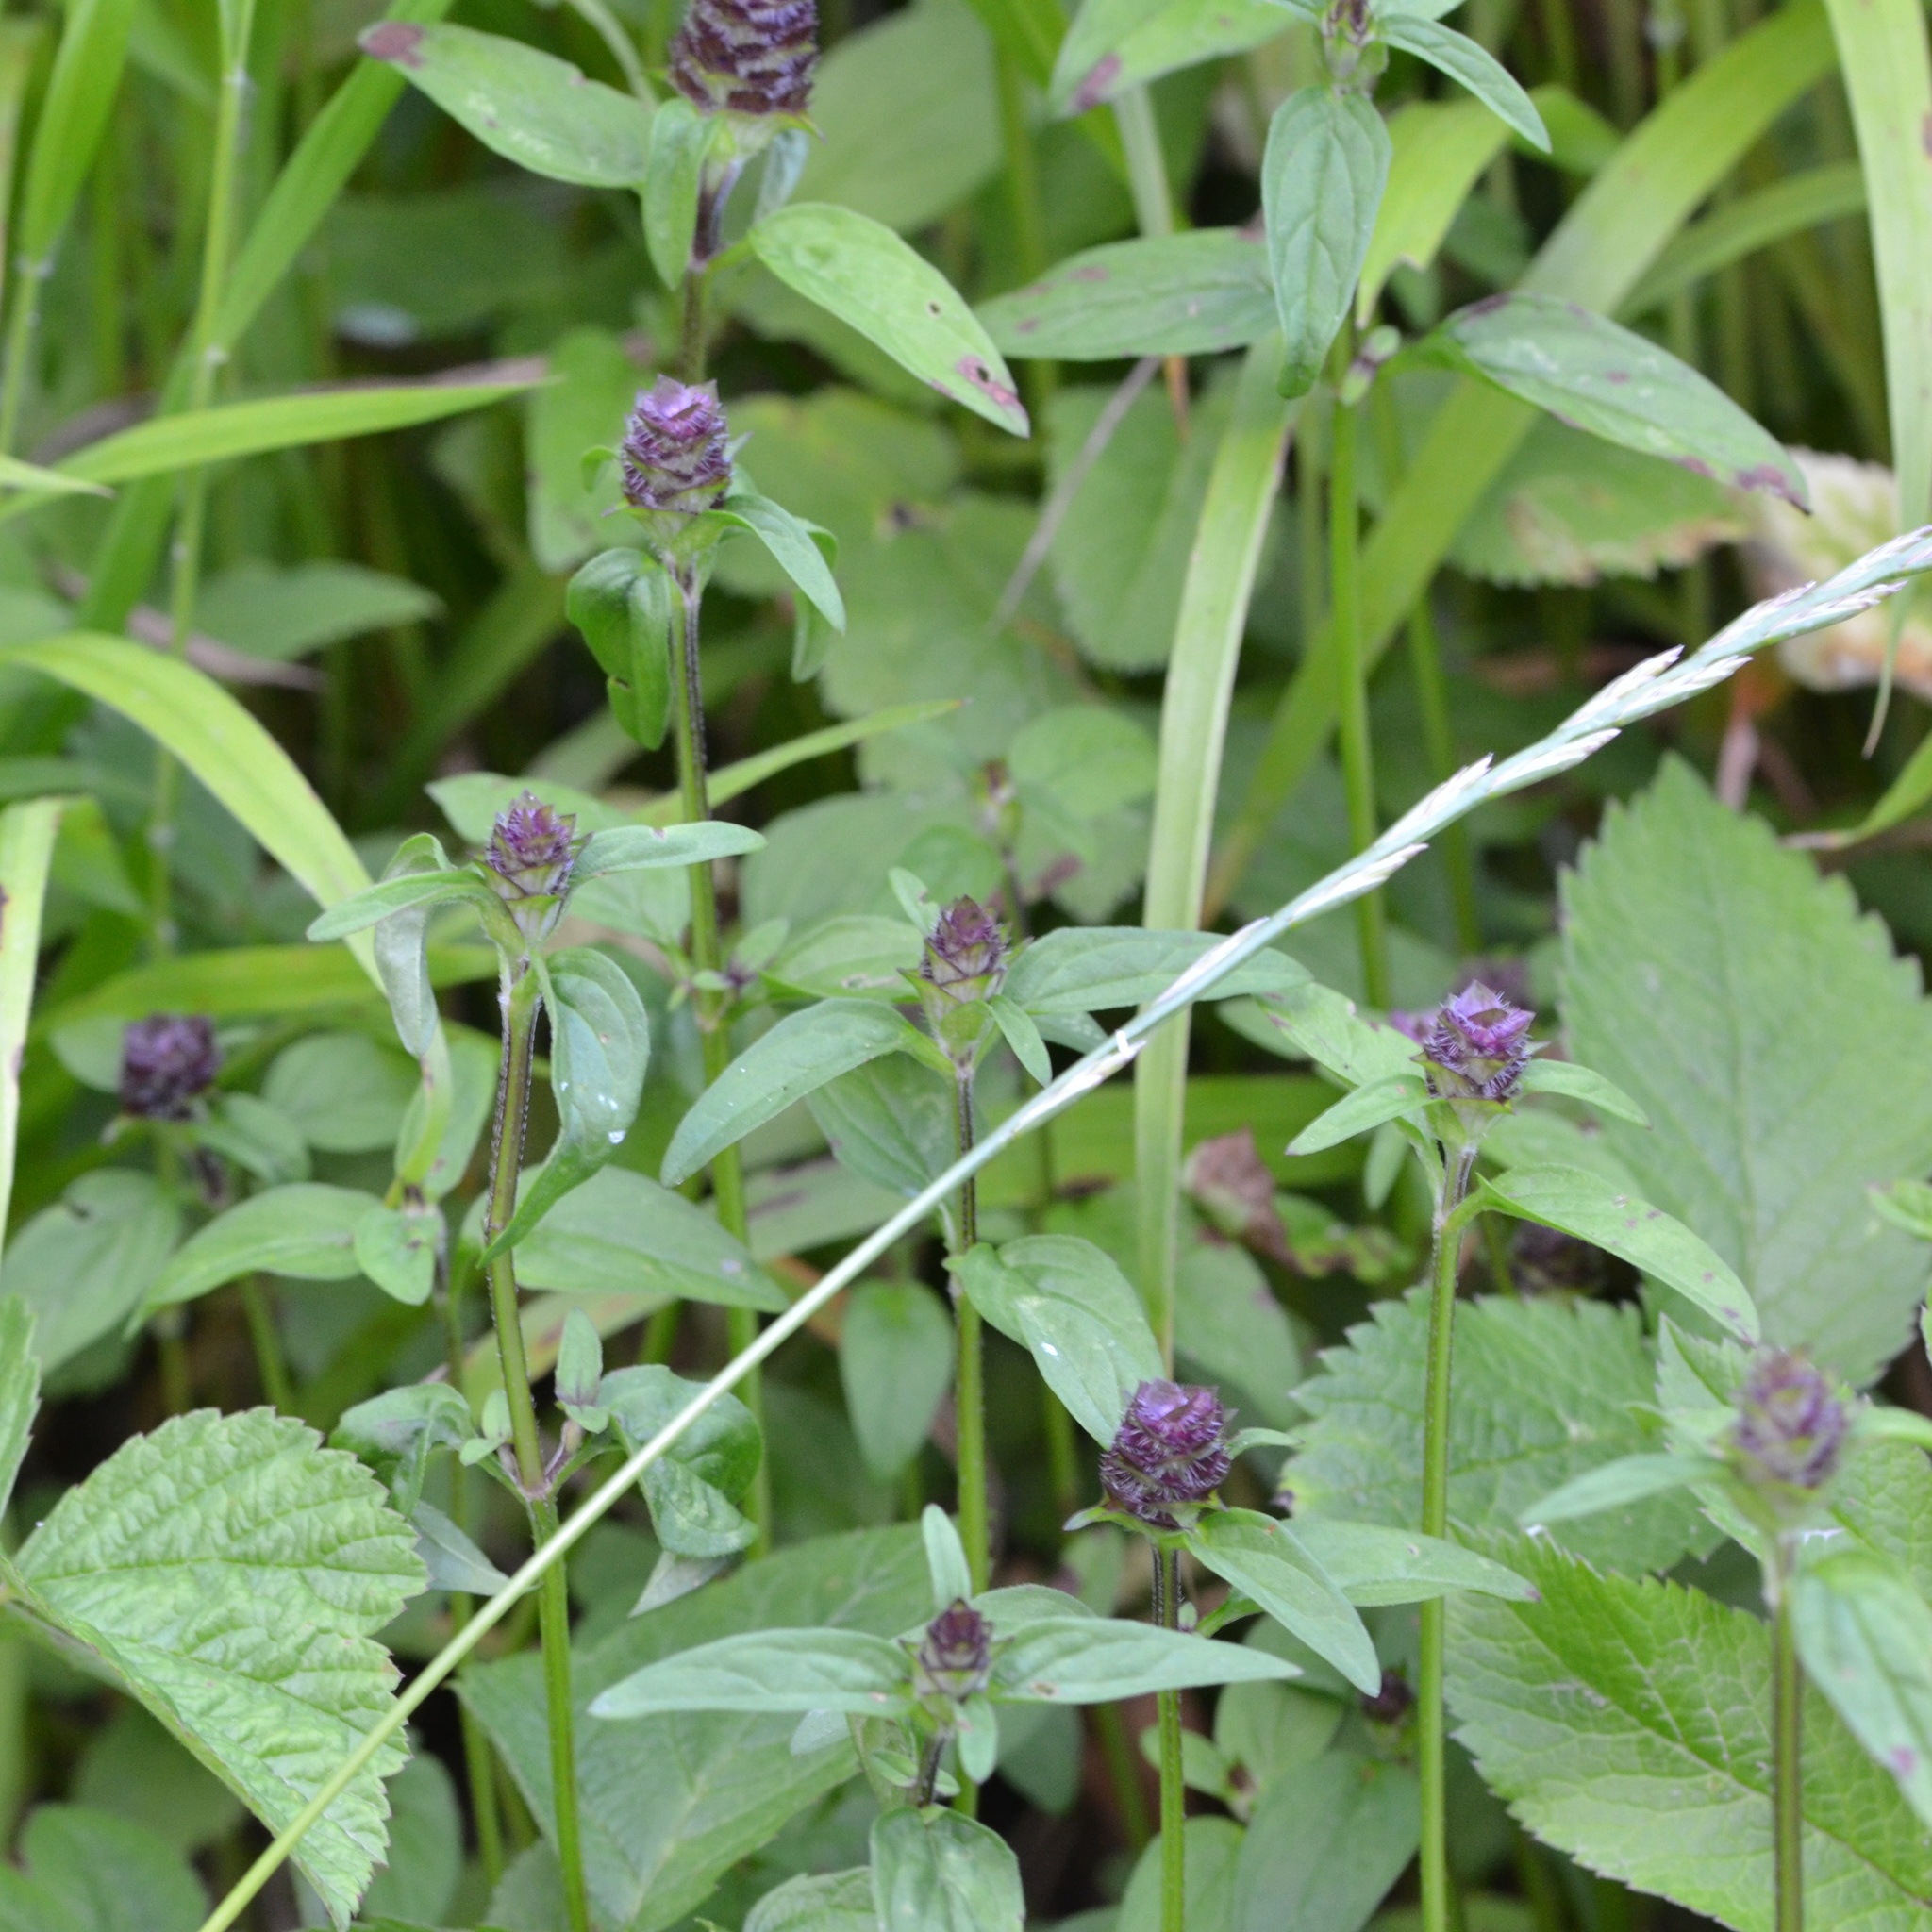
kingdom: Plantae
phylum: Tracheophyta
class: Magnoliopsida
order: Lamiales
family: Lamiaceae
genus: Prunella
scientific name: Prunella vulgaris
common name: Heal-all
